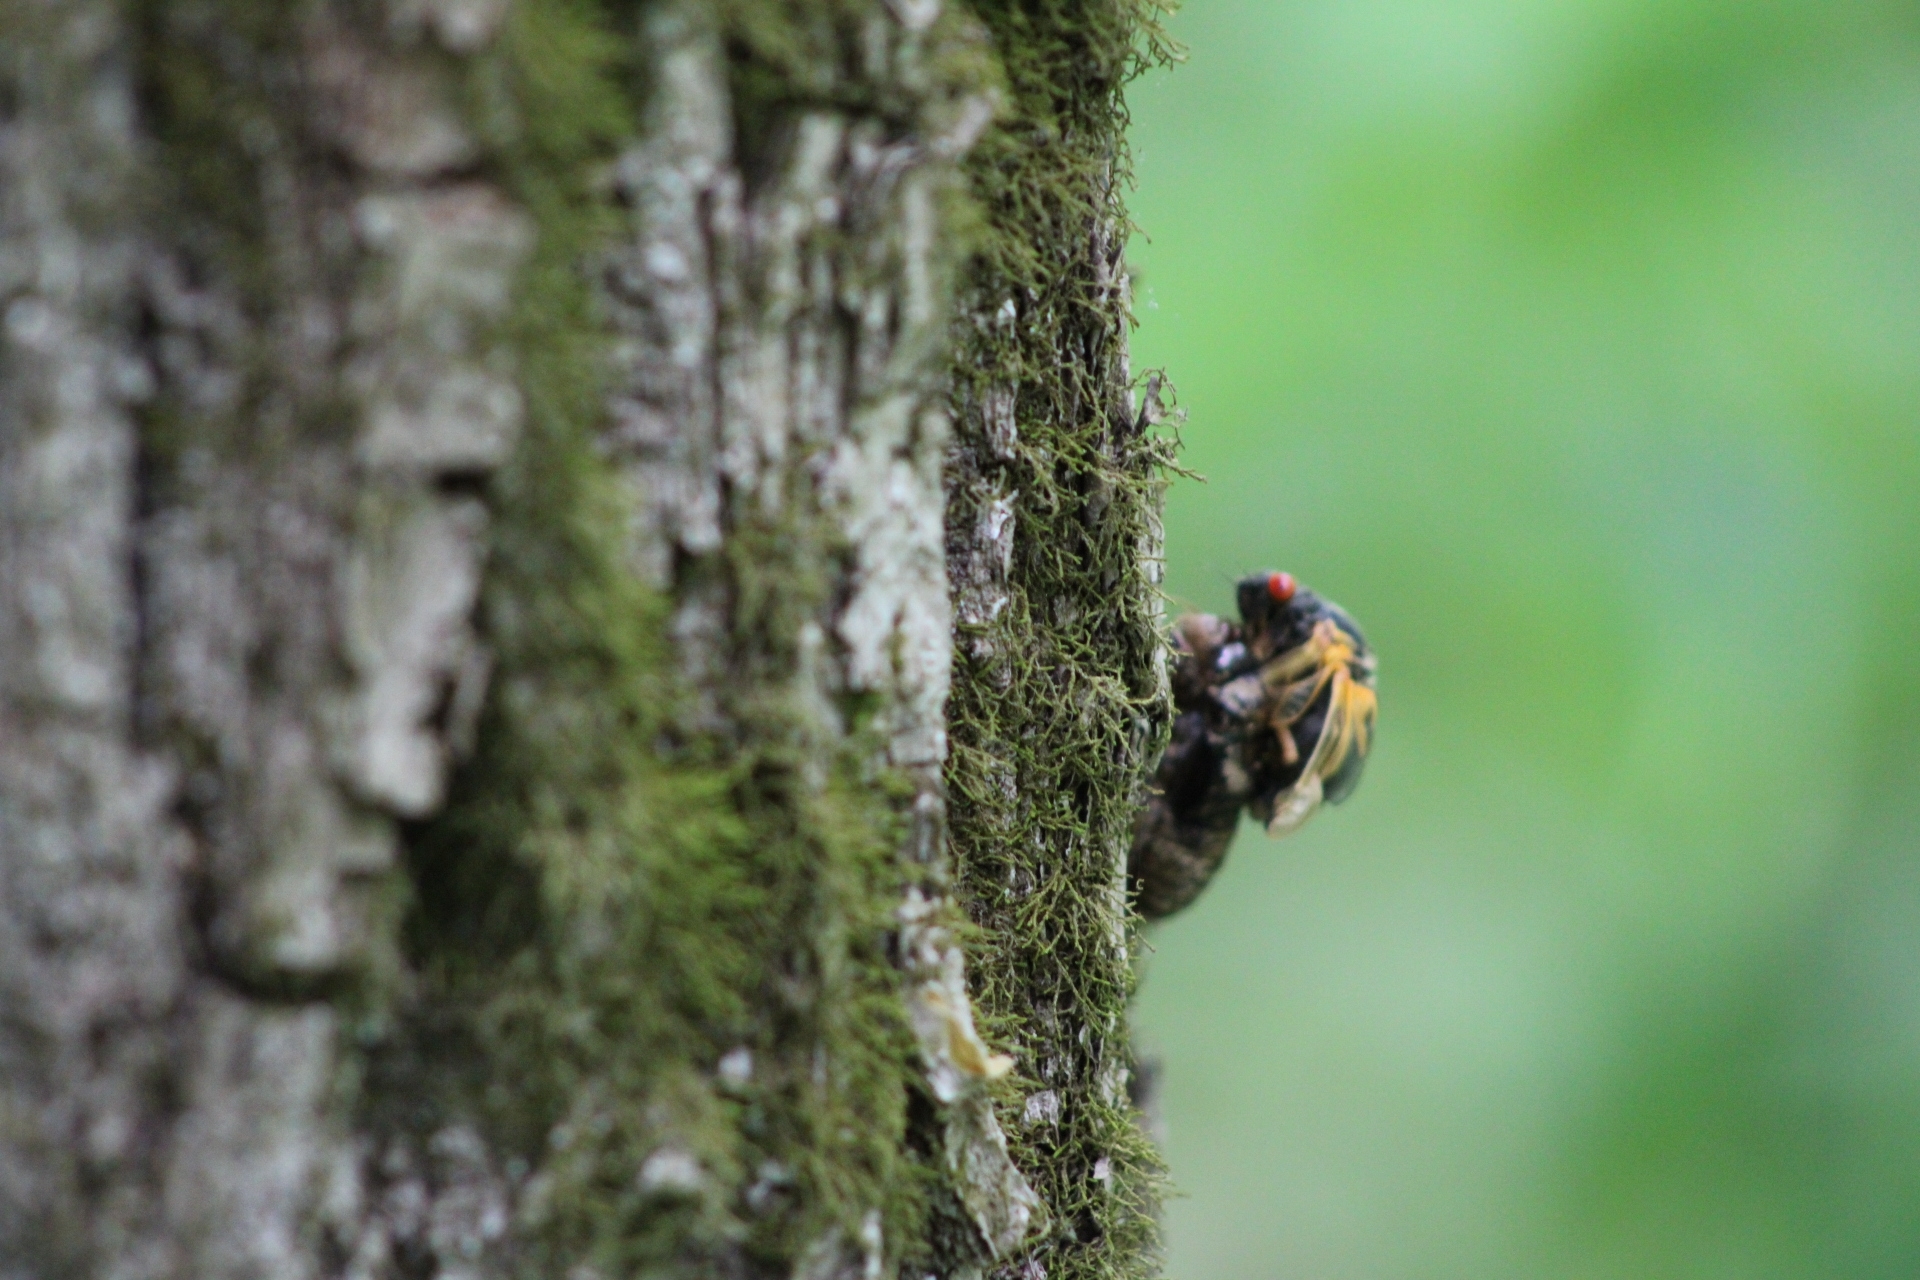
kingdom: Animalia
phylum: Arthropoda
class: Insecta
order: Hemiptera
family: Cicadidae
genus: Magicicada
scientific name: Magicicada
